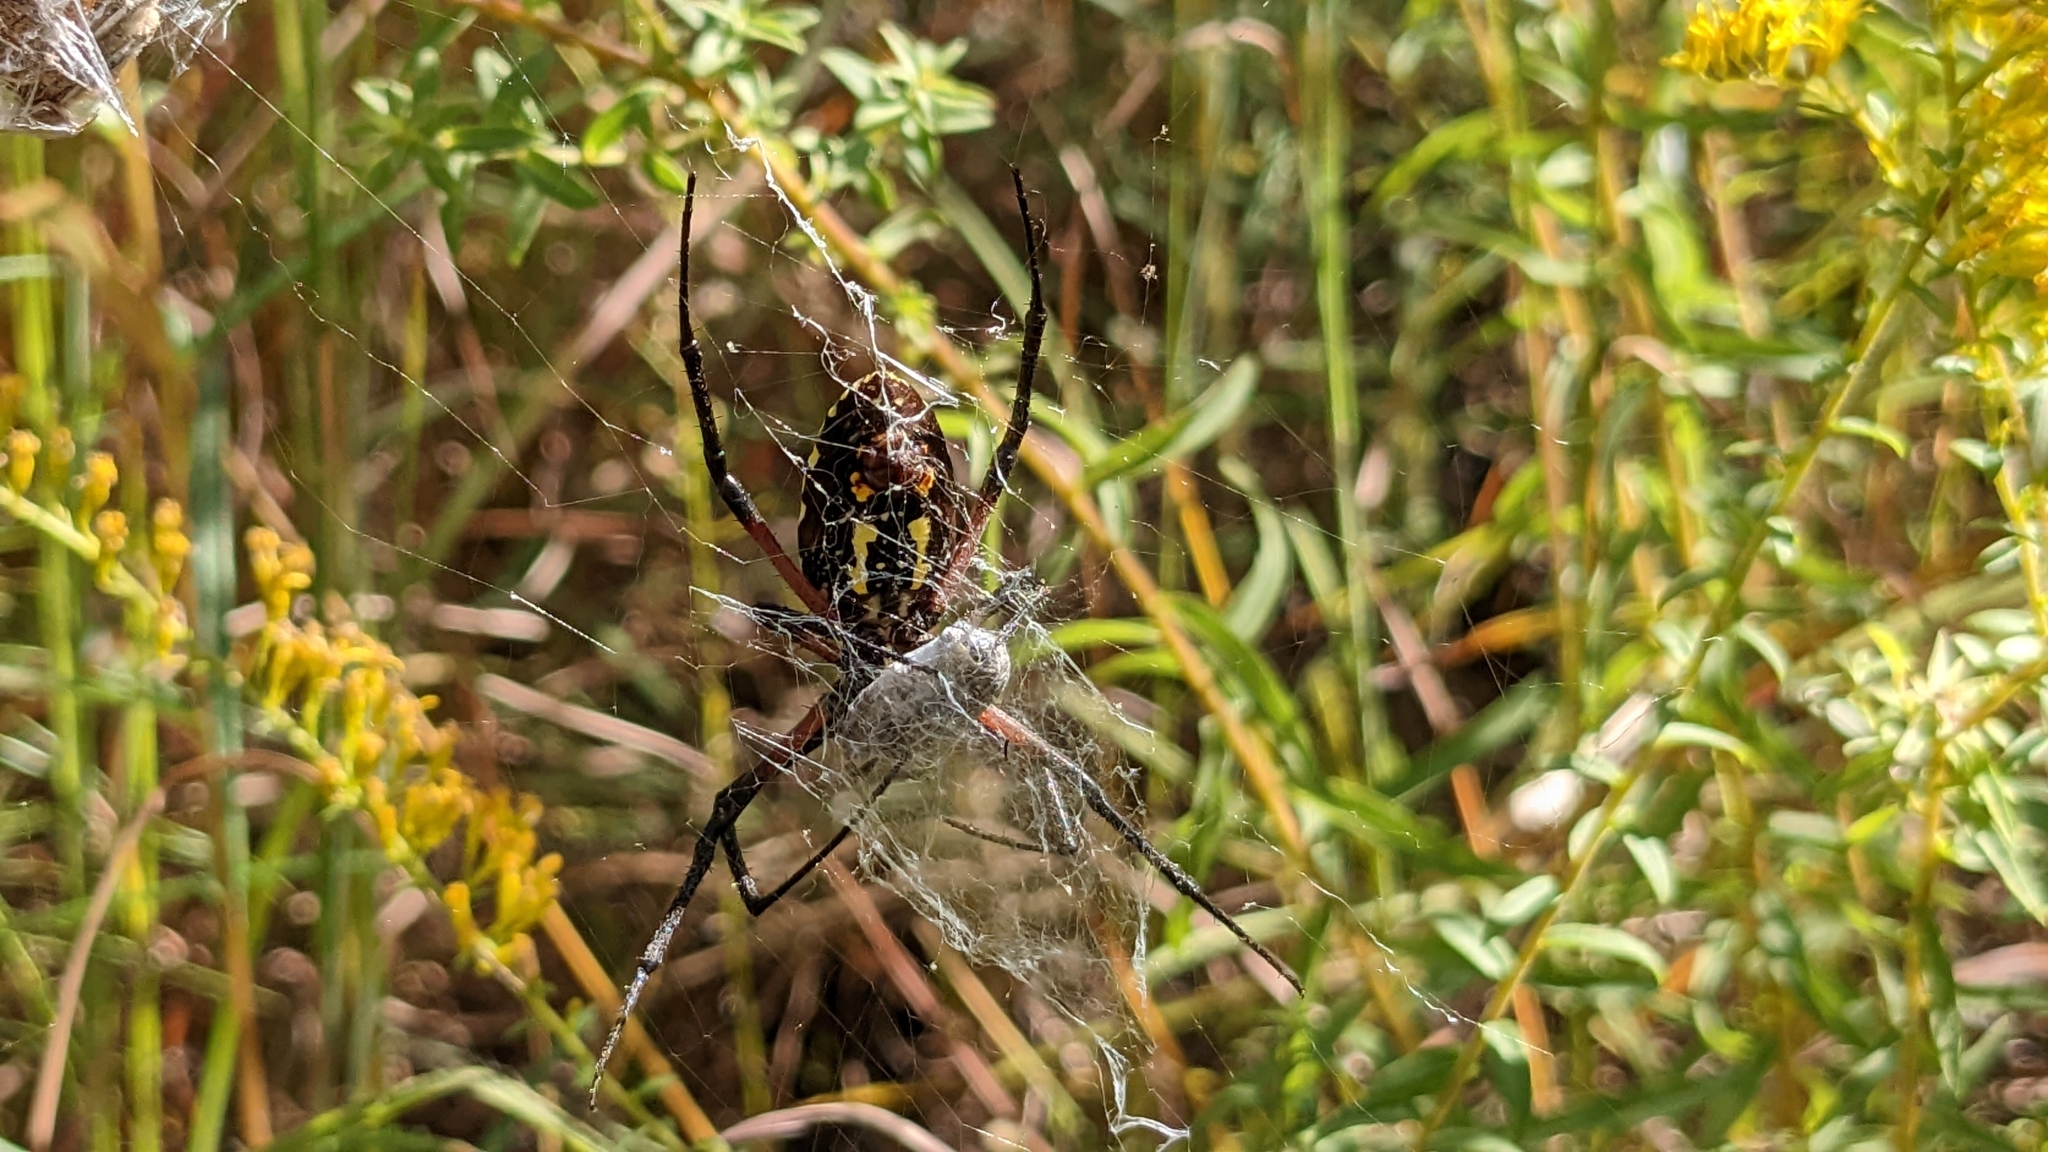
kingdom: Animalia
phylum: Arthropoda
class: Arachnida
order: Araneae
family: Araneidae
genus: Argiope
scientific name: Argiope aurantia
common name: Orb weavers
